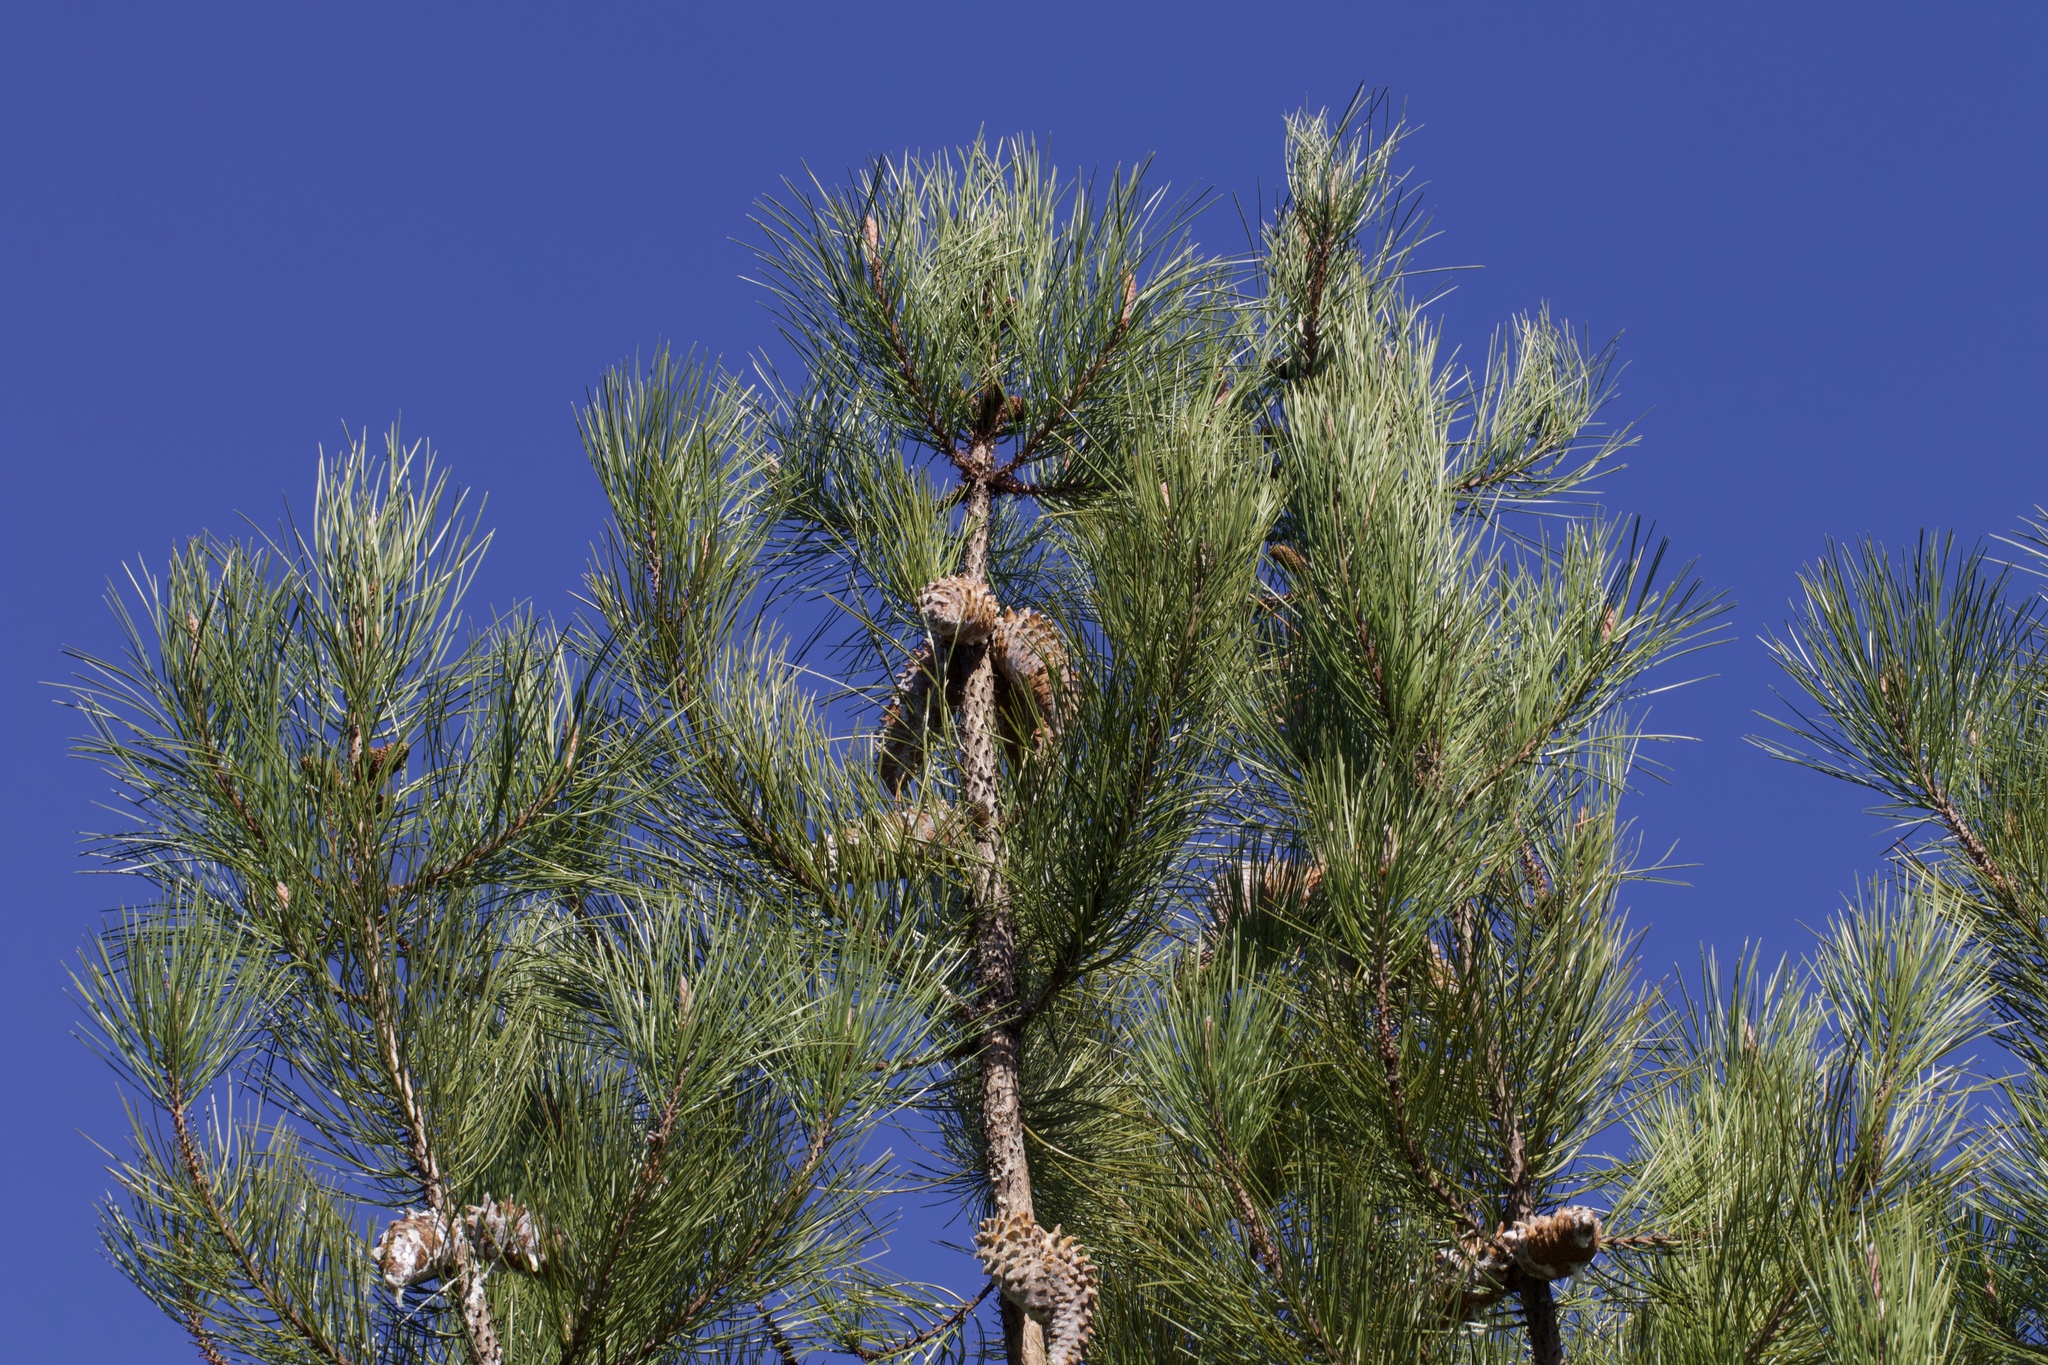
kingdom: Plantae
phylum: Tracheophyta
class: Pinopsida
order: Pinales
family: Pinaceae
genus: Pinus
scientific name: Pinus attenuata
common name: Knobcone pine
